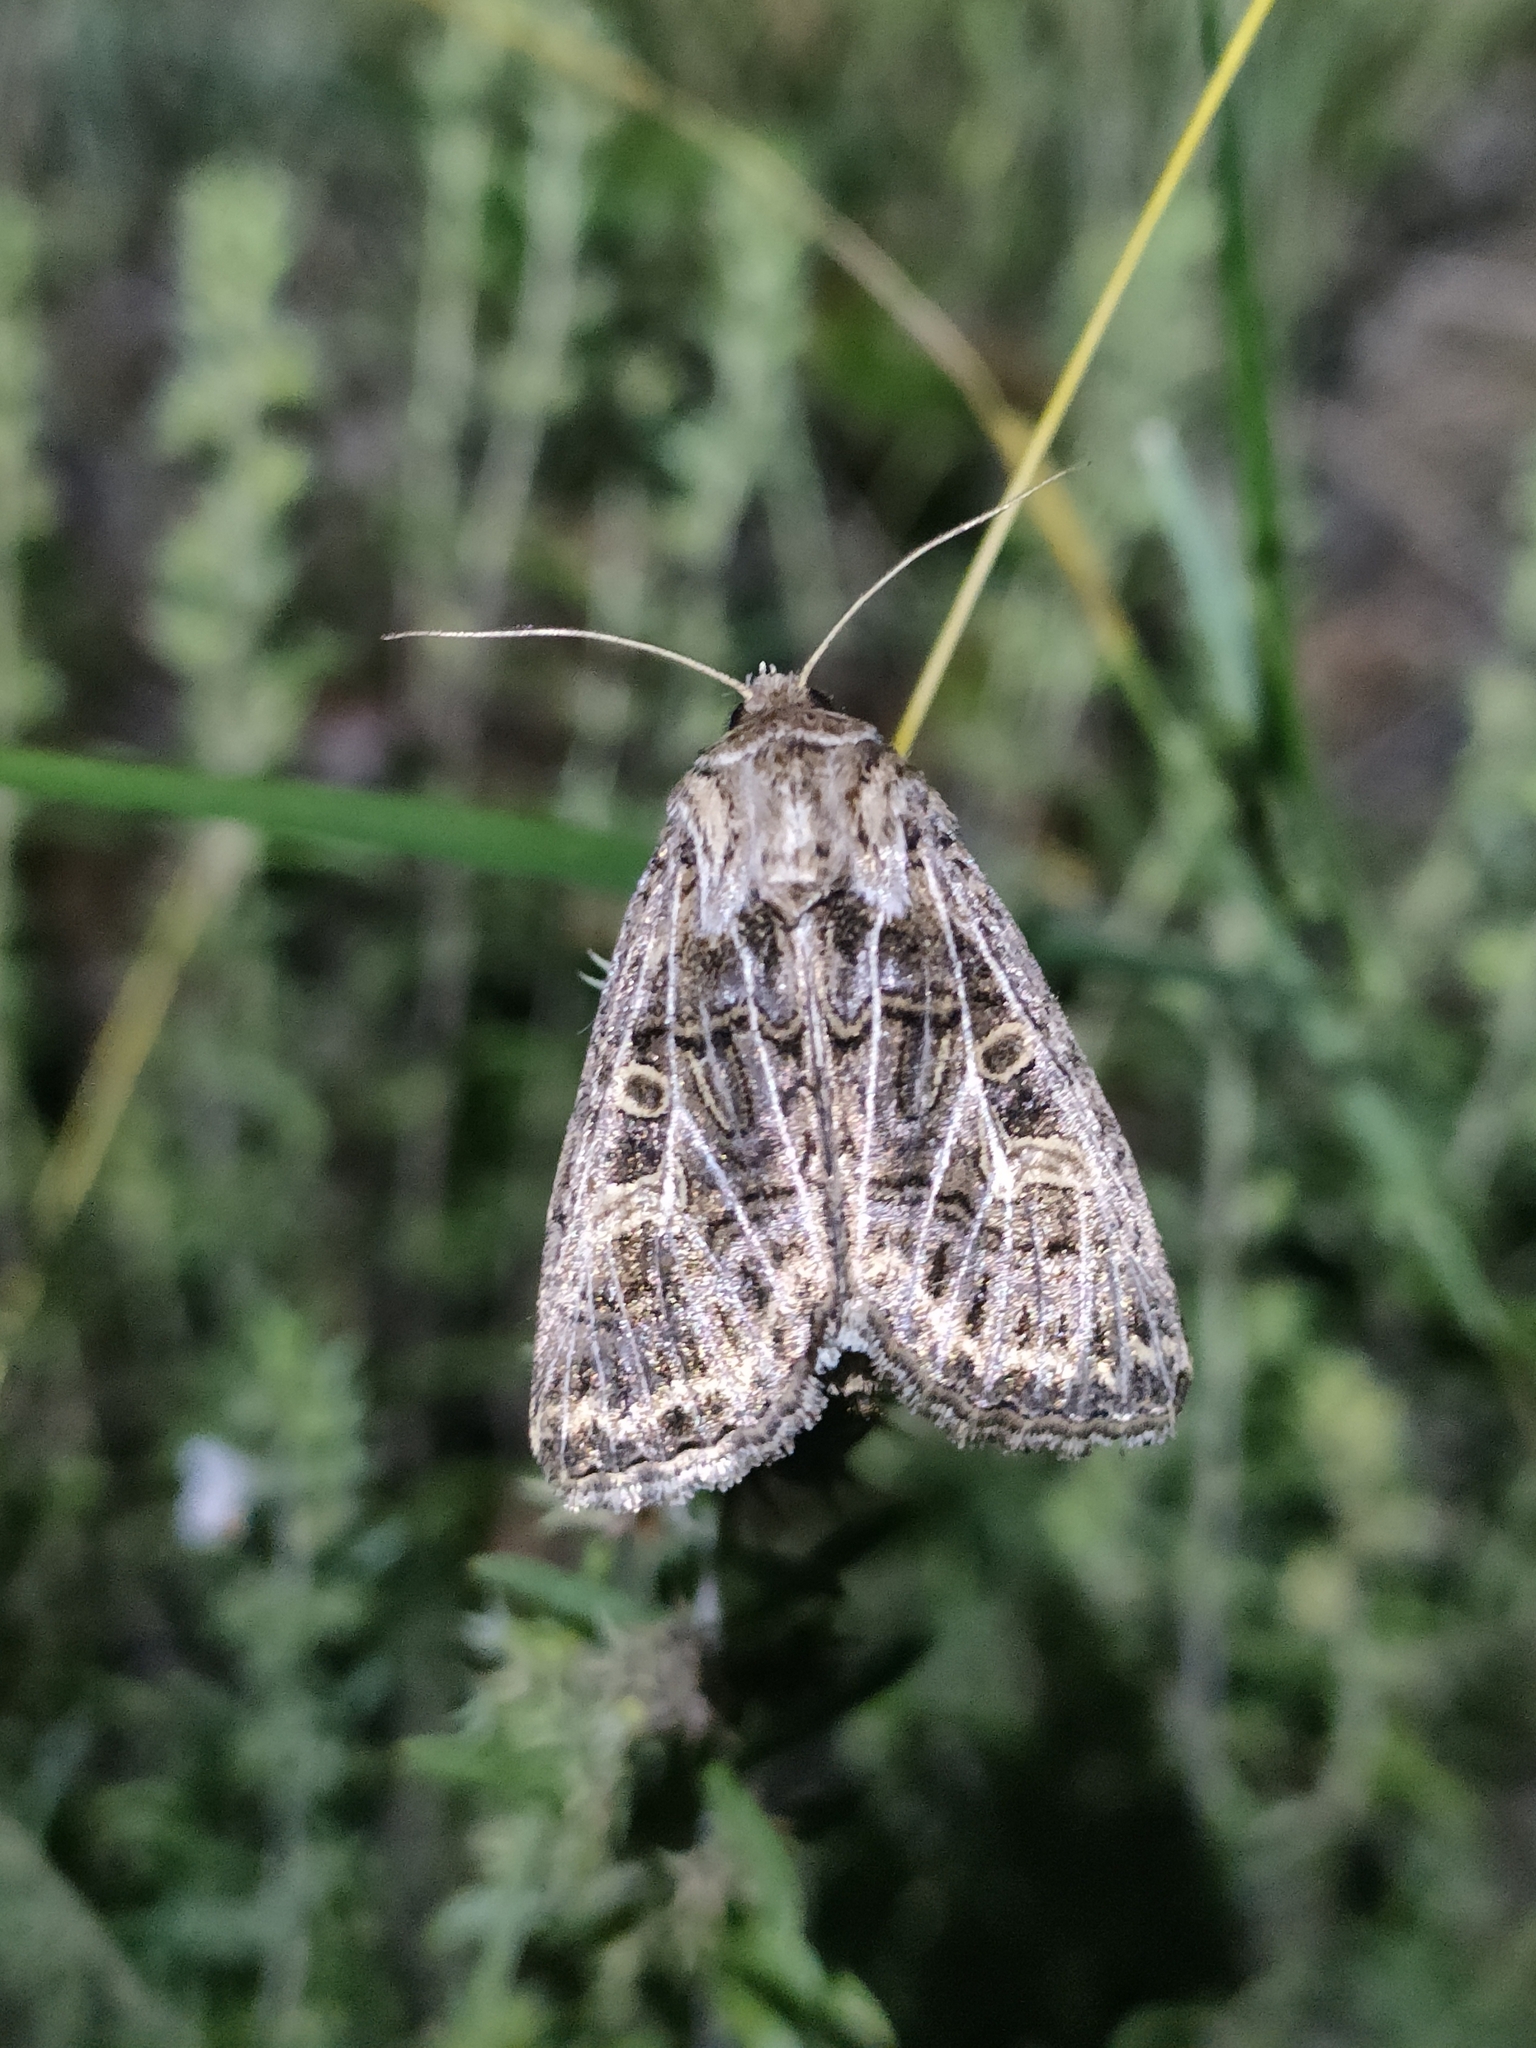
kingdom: Animalia
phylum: Arthropoda
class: Insecta
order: Lepidoptera
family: Noctuidae
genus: Tholera
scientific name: Tholera decimalis
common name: Feathered gothic
